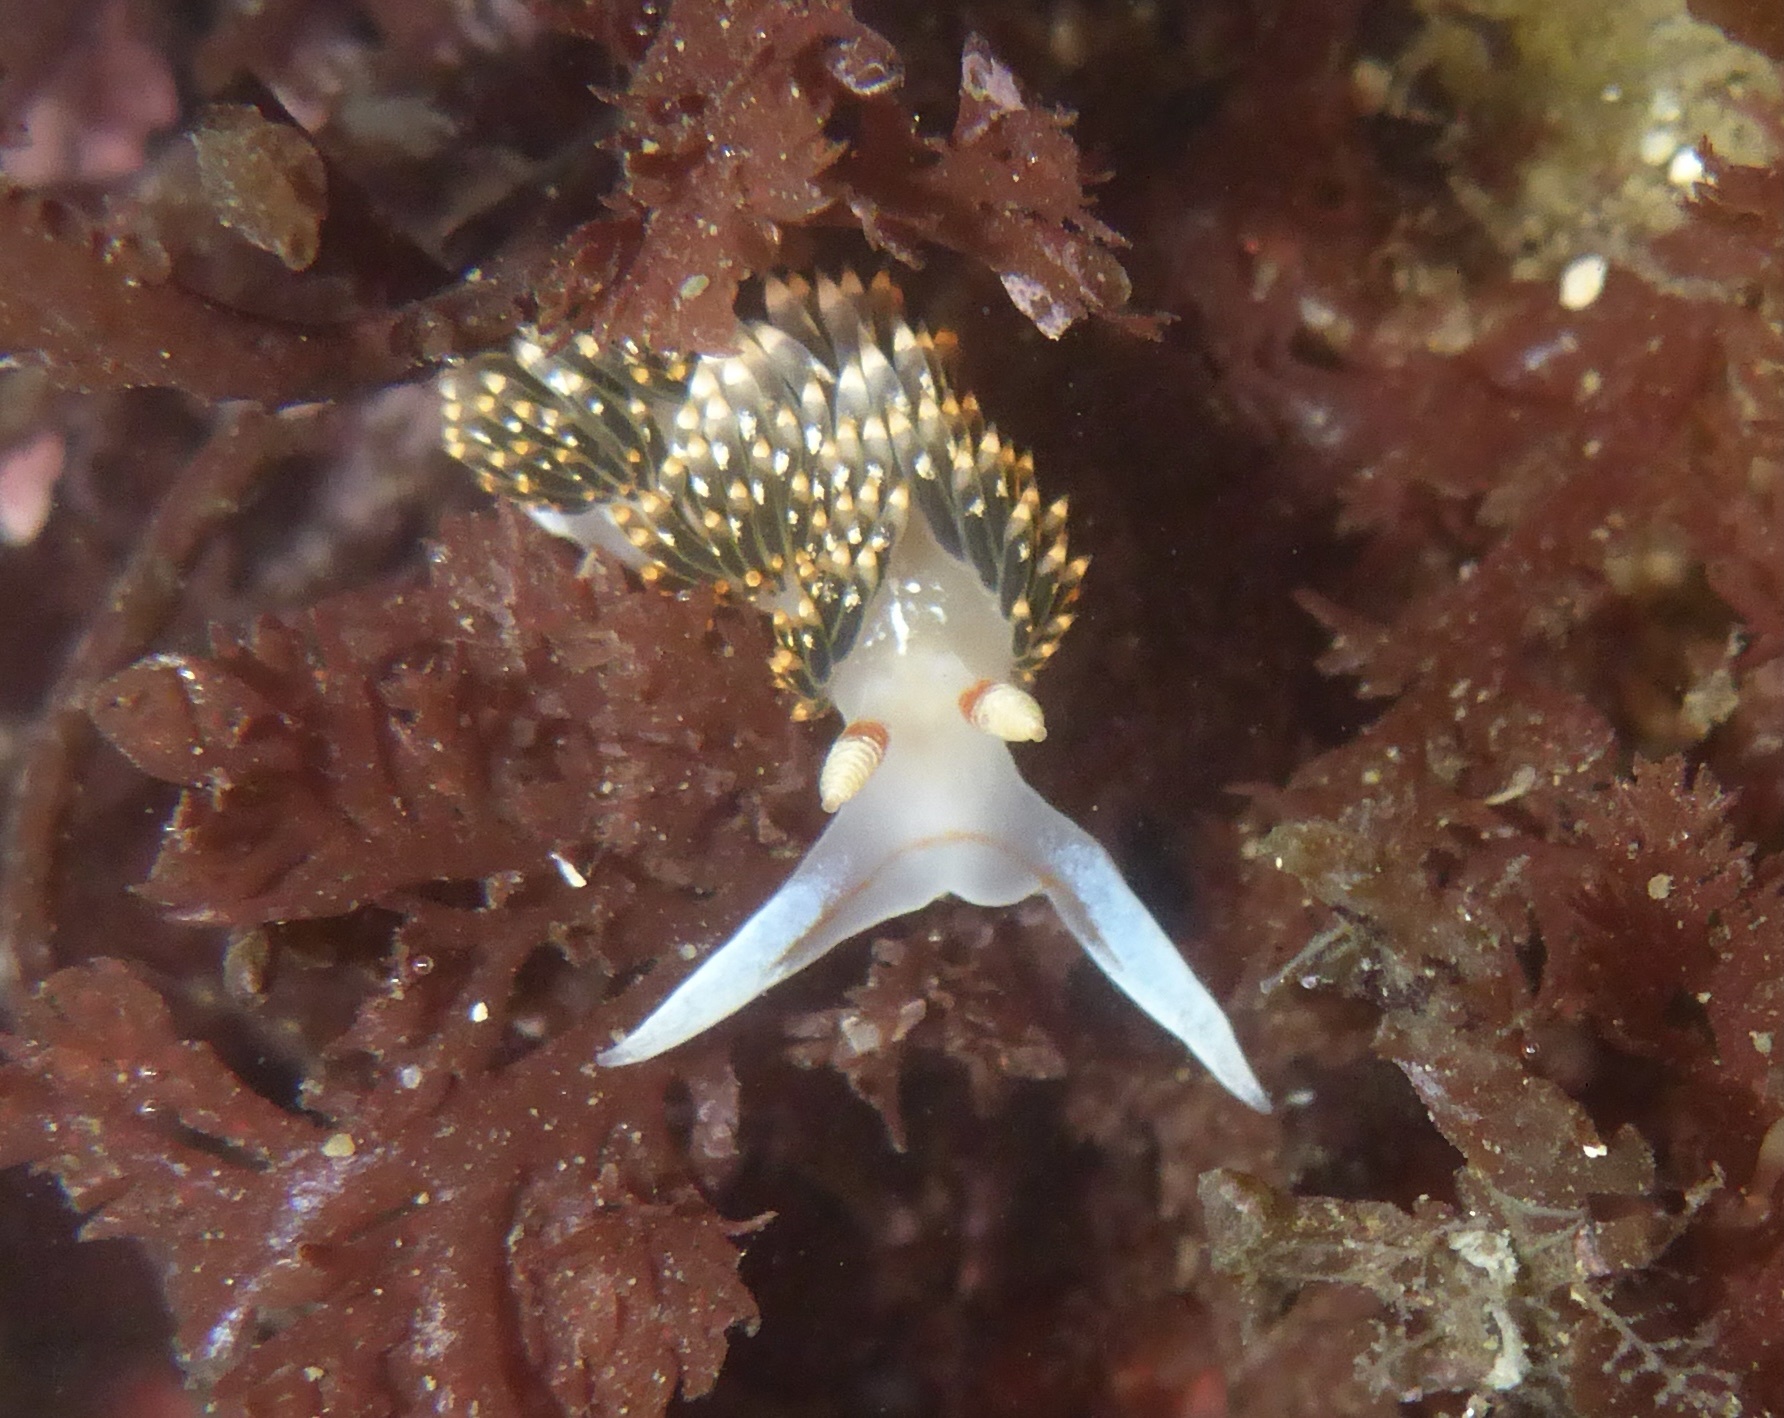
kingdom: Animalia
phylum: Mollusca
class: Gastropoda
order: Nudibranchia
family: Facelinidae
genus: Phidiana
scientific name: Phidiana hiltoni
